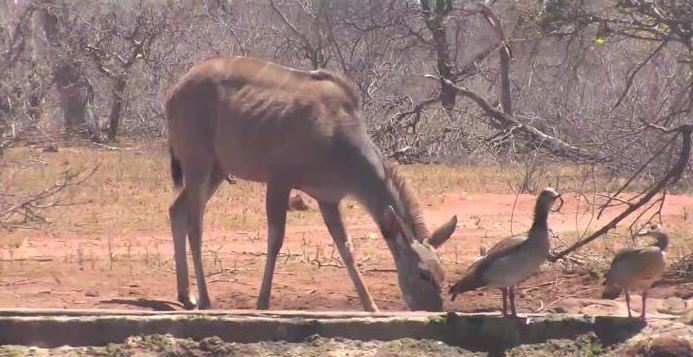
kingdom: Animalia
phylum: Chordata
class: Mammalia
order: Artiodactyla
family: Bovidae
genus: Tragelaphus
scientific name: Tragelaphus strepsiceros
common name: Greater kudu
